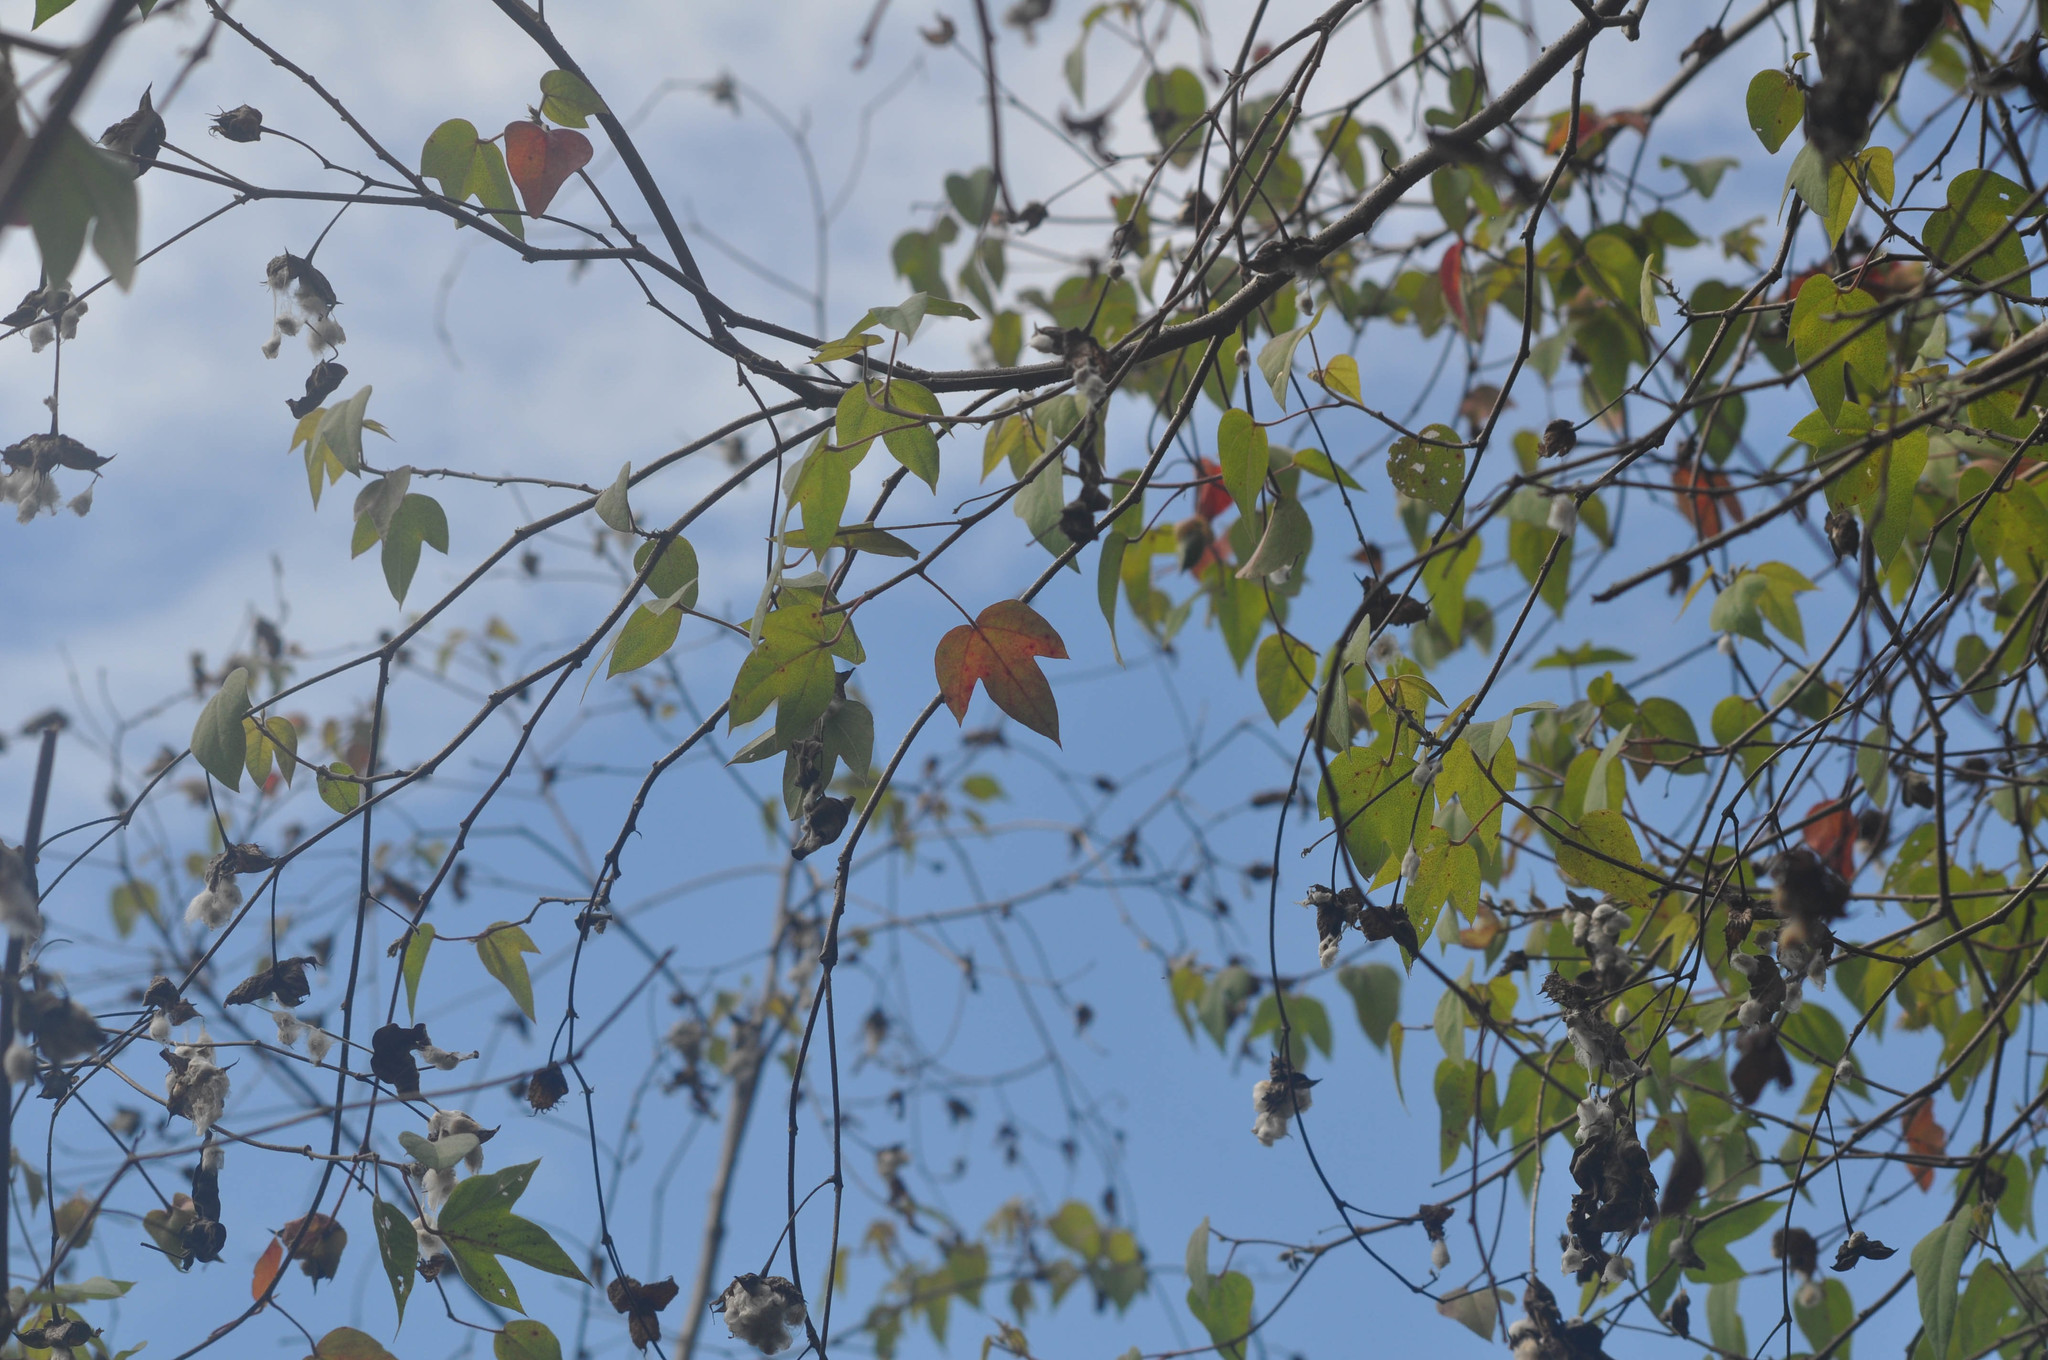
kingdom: Plantae
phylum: Tracheophyta
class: Magnoliopsida
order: Malvales
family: Malvaceae
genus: Gossypium
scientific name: Gossypium darwinii
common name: Darwin's cotton
